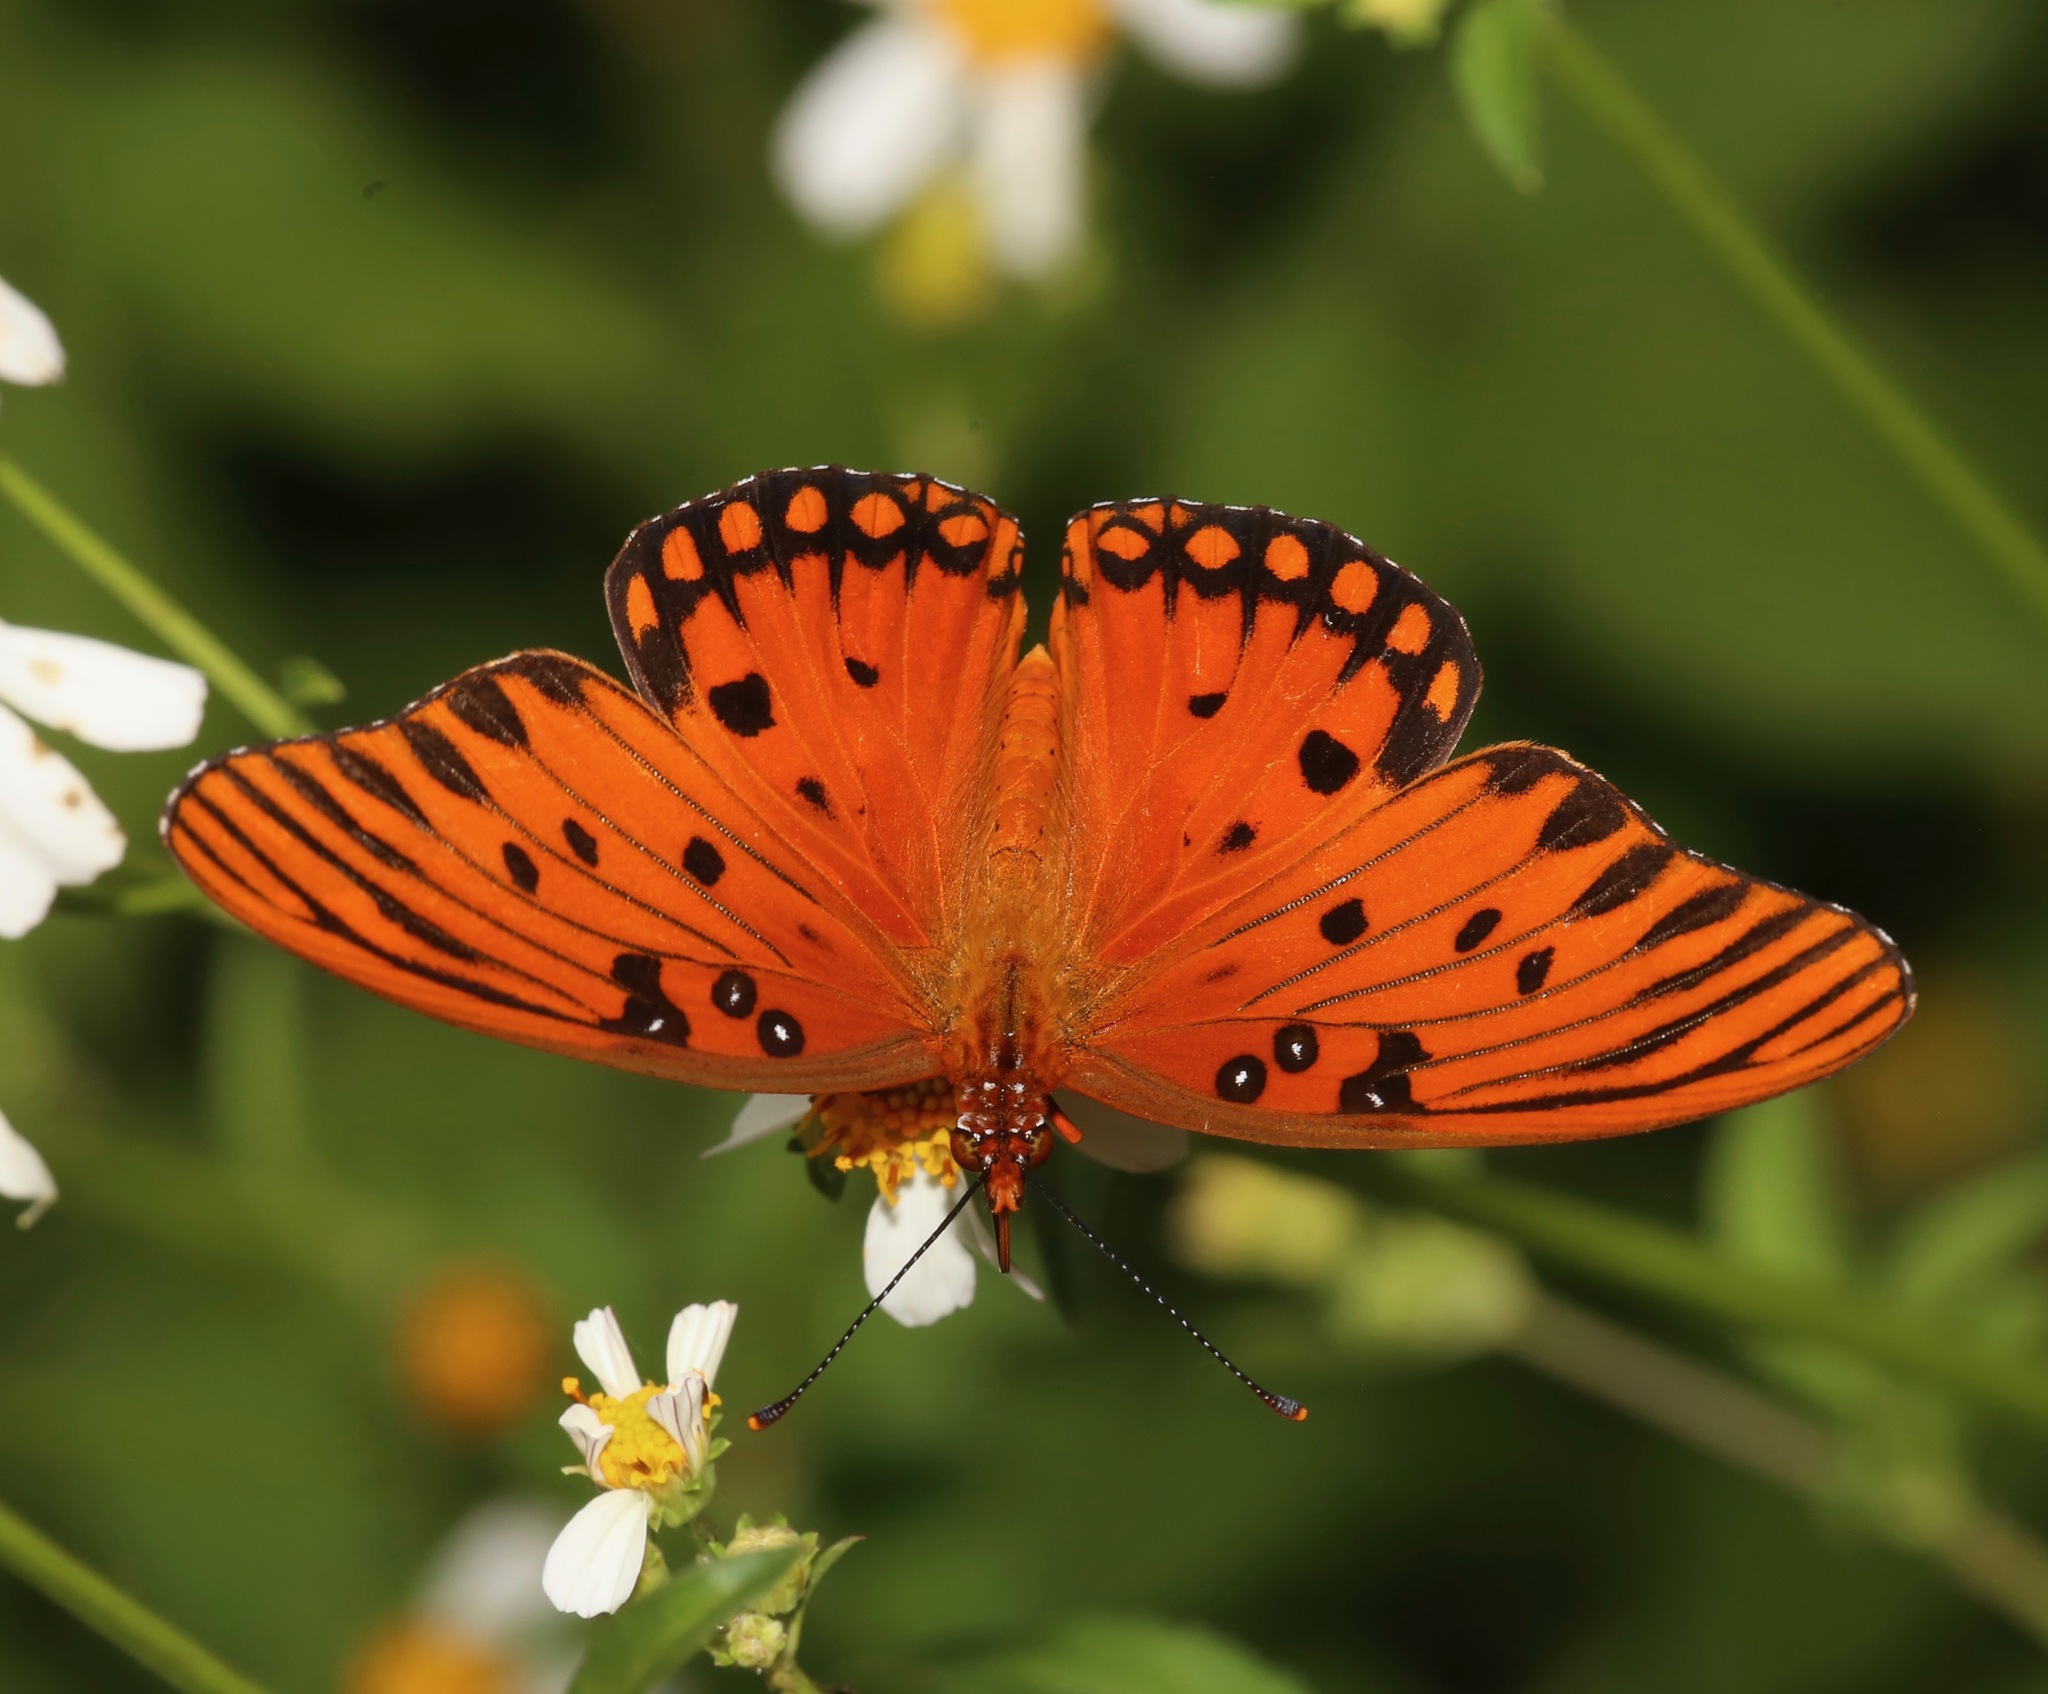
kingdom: Animalia
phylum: Arthropoda
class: Insecta
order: Lepidoptera
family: Nymphalidae
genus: Dione
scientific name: Dione vanillae
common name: Gulf fritillary
